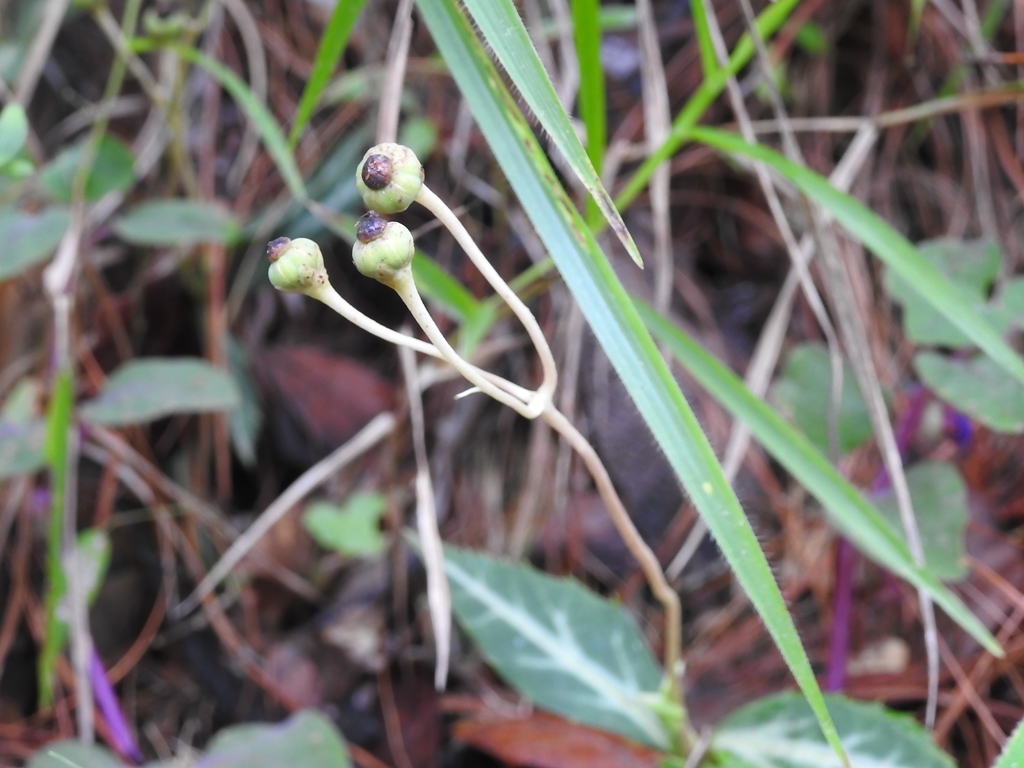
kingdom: Plantae
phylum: Tracheophyta
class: Magnoliopsida
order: Ericales
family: Ericaceae
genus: Chimaphila
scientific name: Chimaphila maculata
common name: Spotted pipsissewa
